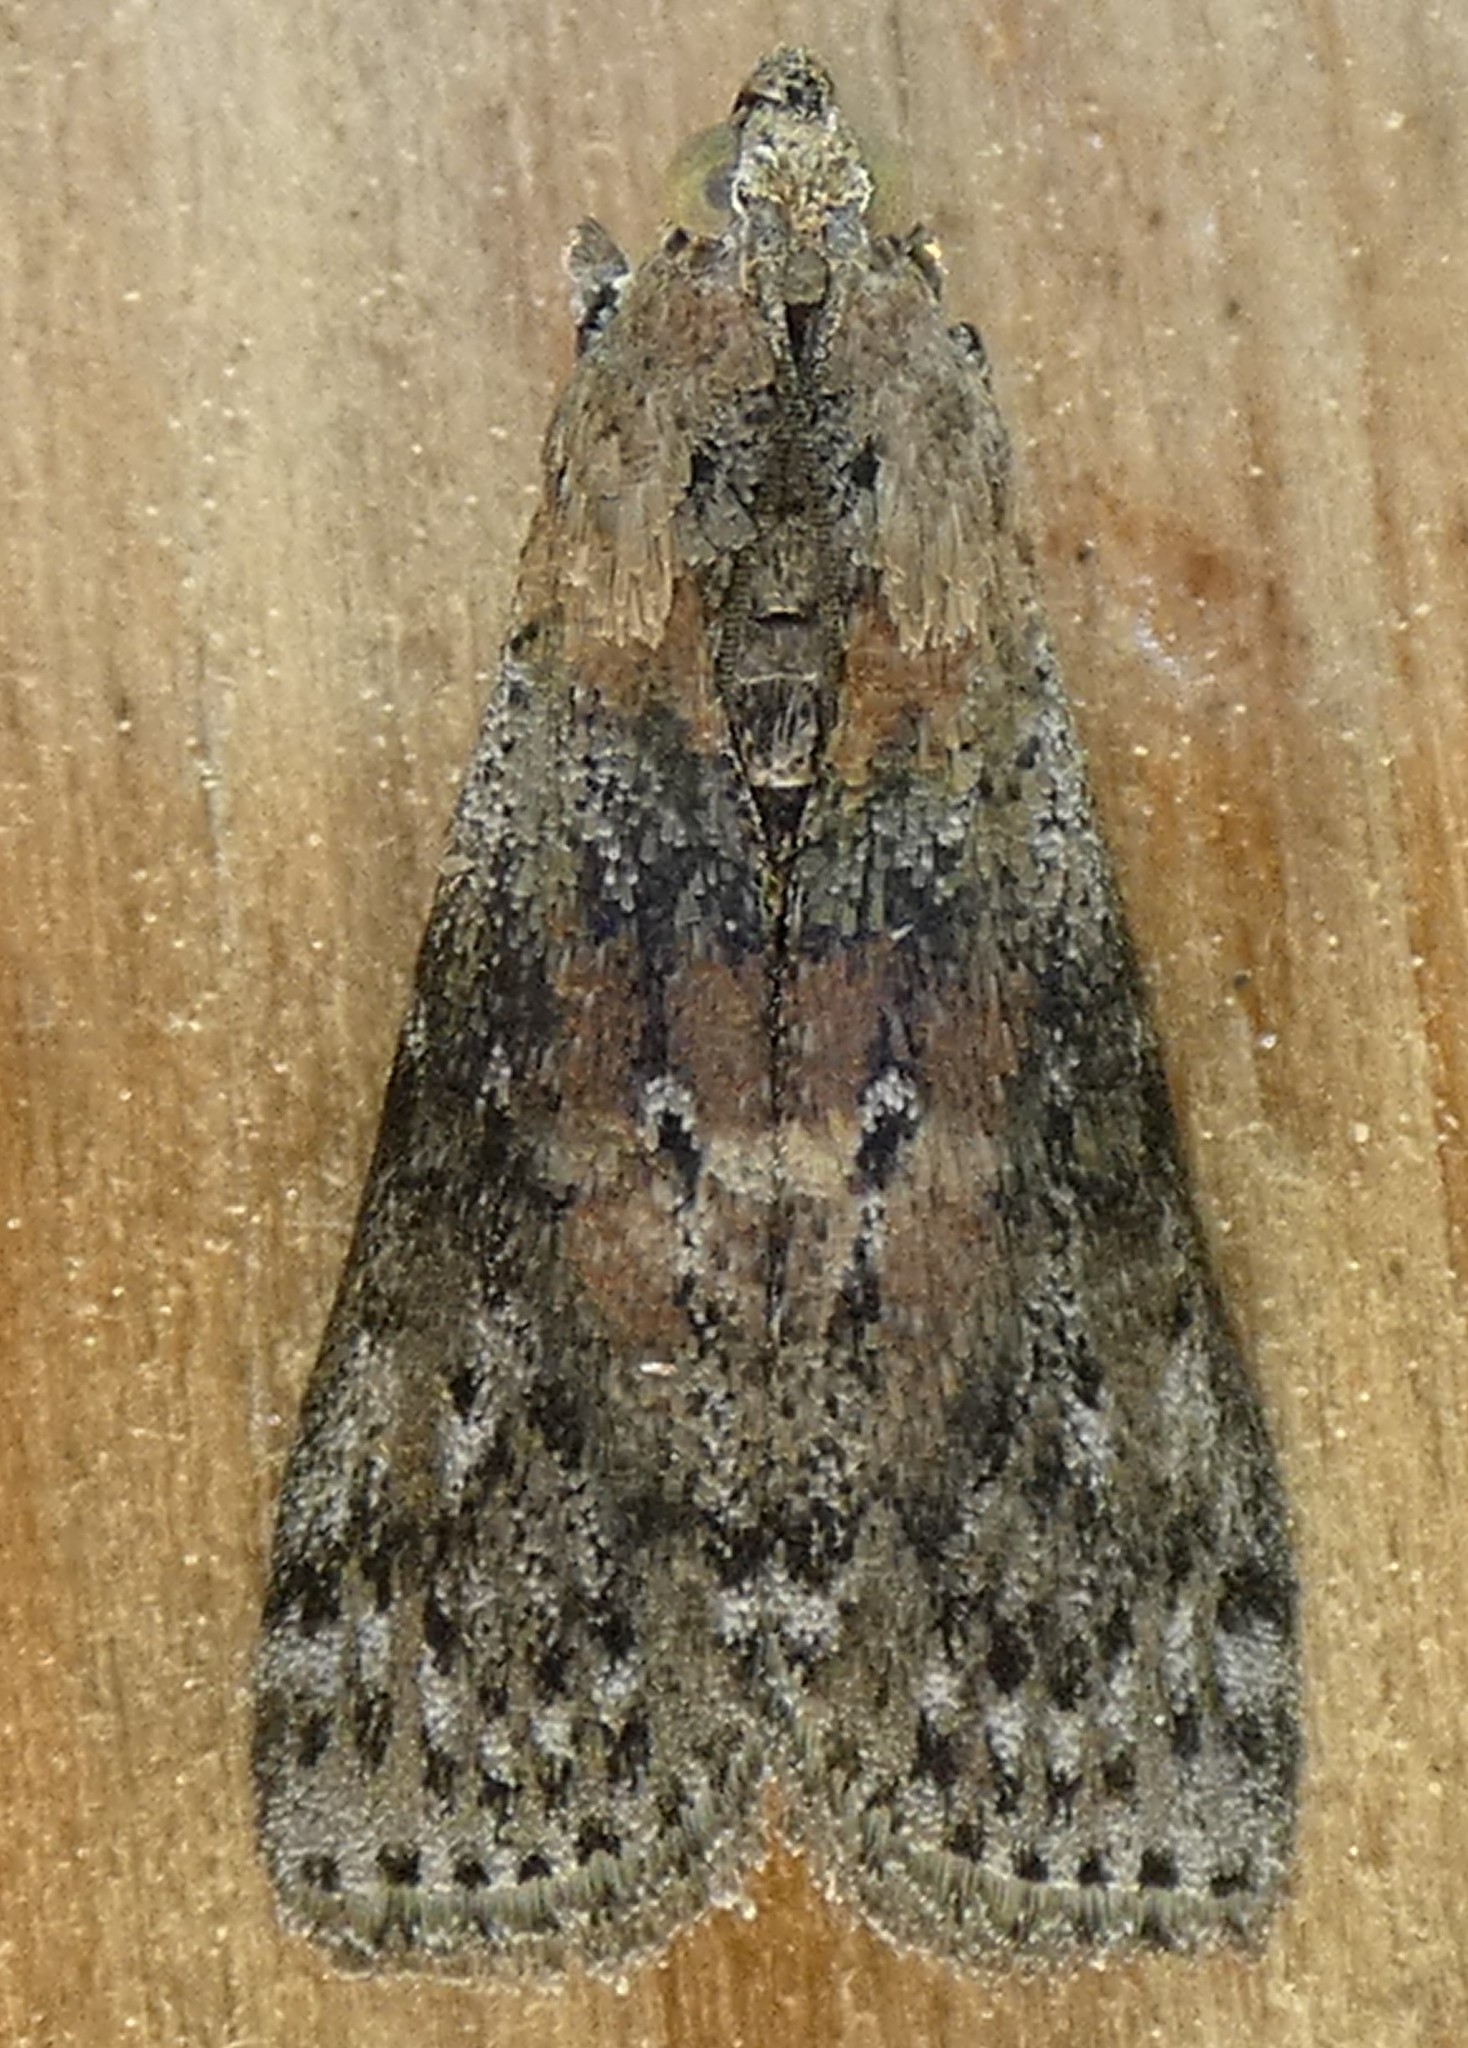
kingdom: Animalia
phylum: Arthropoda
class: Insecta
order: Lepidoptera
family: Pyralidae
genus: Sciota
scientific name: Sciota celtidella
